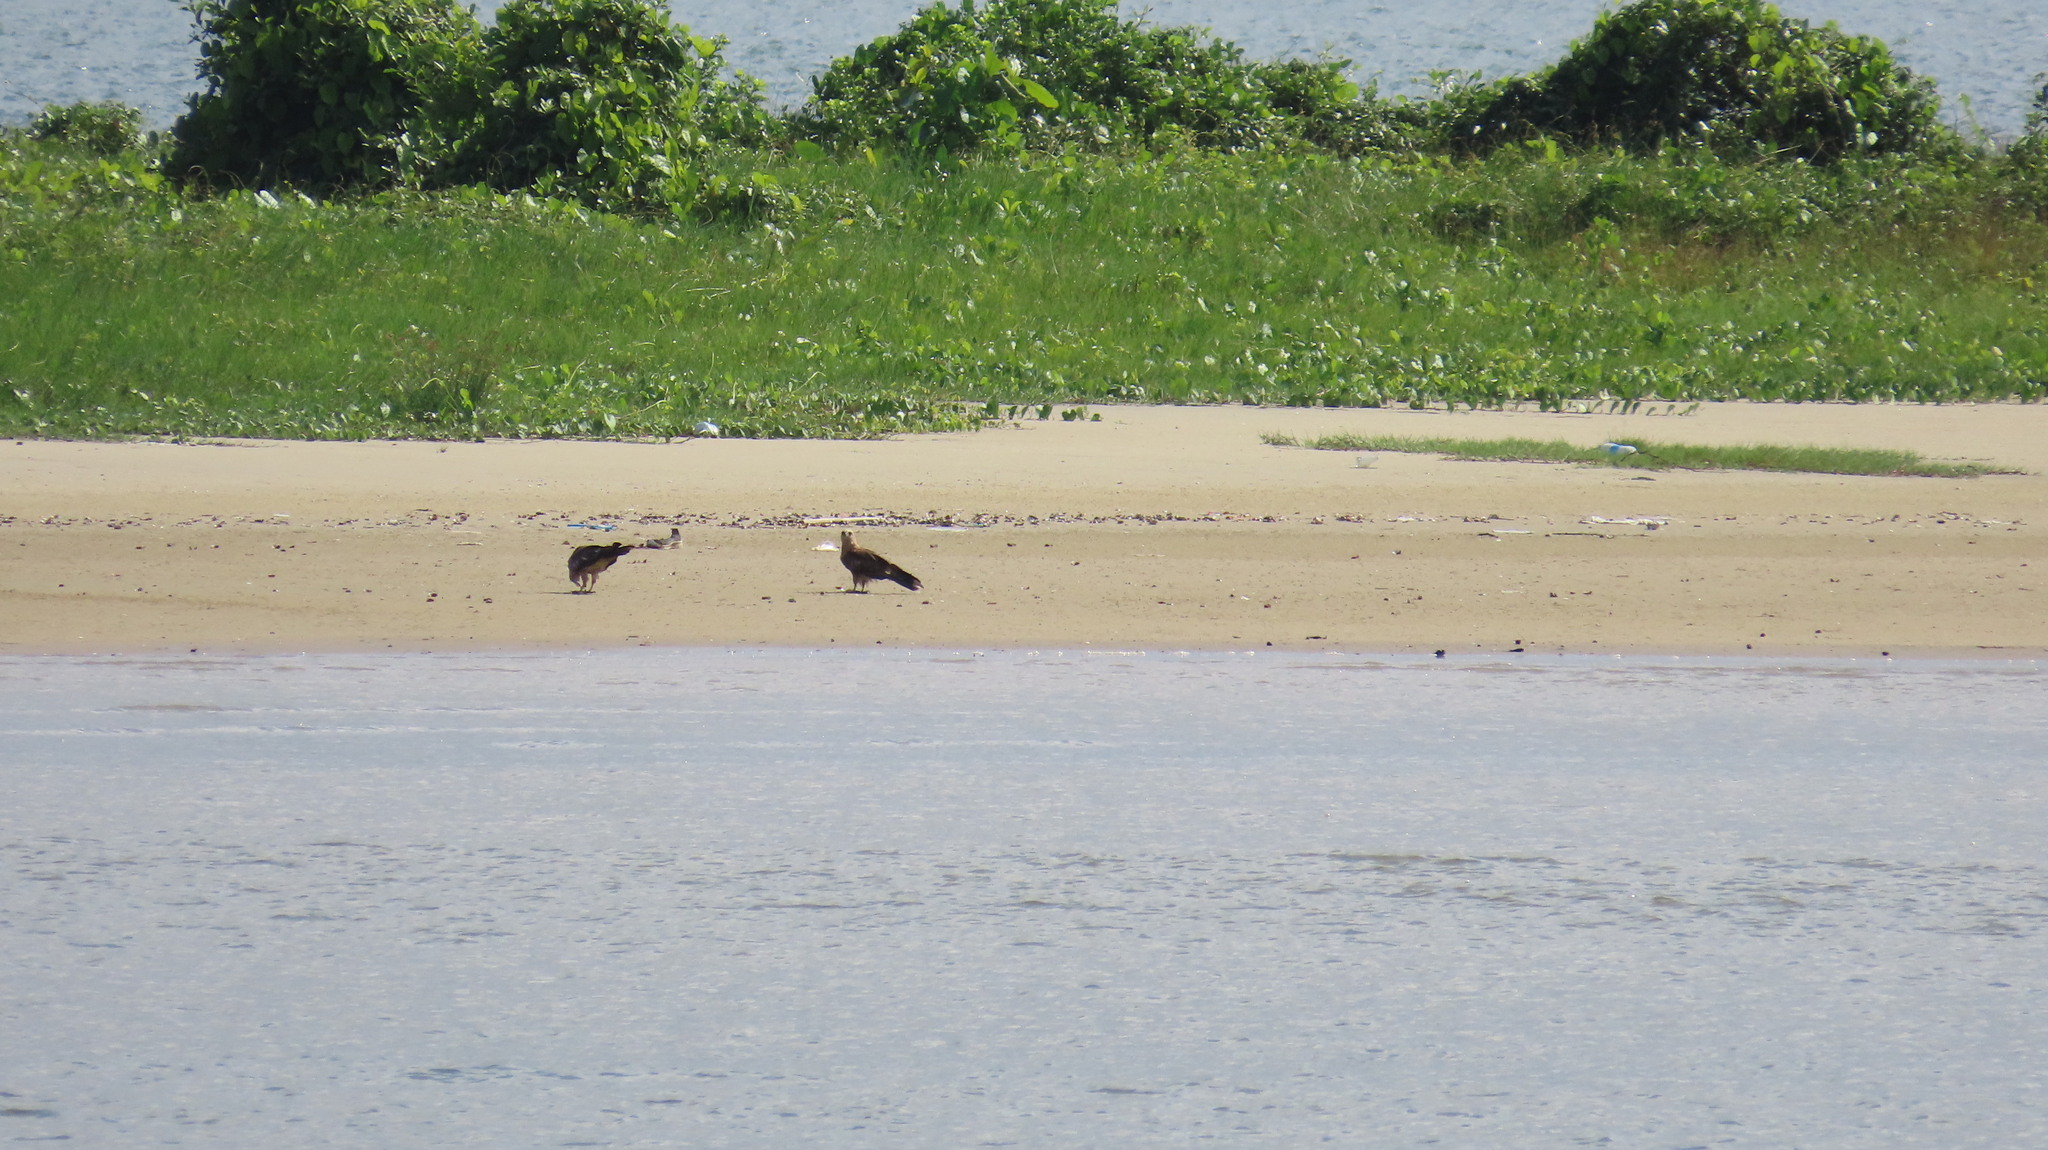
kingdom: Animalia
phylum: Chordata
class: Aves
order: Accipitriformes
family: Accipitridae
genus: Haliastur
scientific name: Haliastur indus
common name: Brahminy kite
